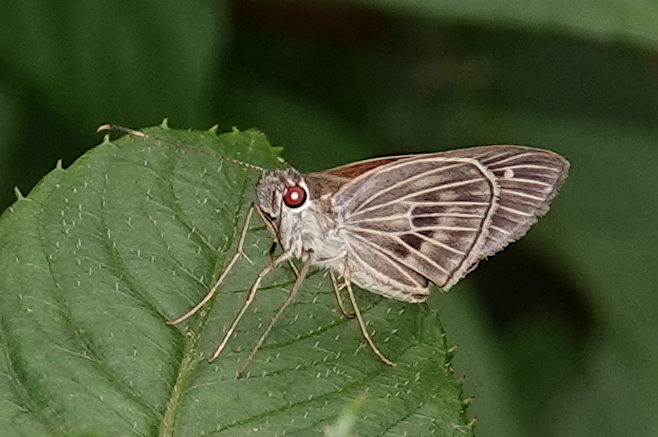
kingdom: Animalia
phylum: Arthropoda
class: Insecta
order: Lepidoptera
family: Hesperiidae
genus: Aecas
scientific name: Aecas aecas
